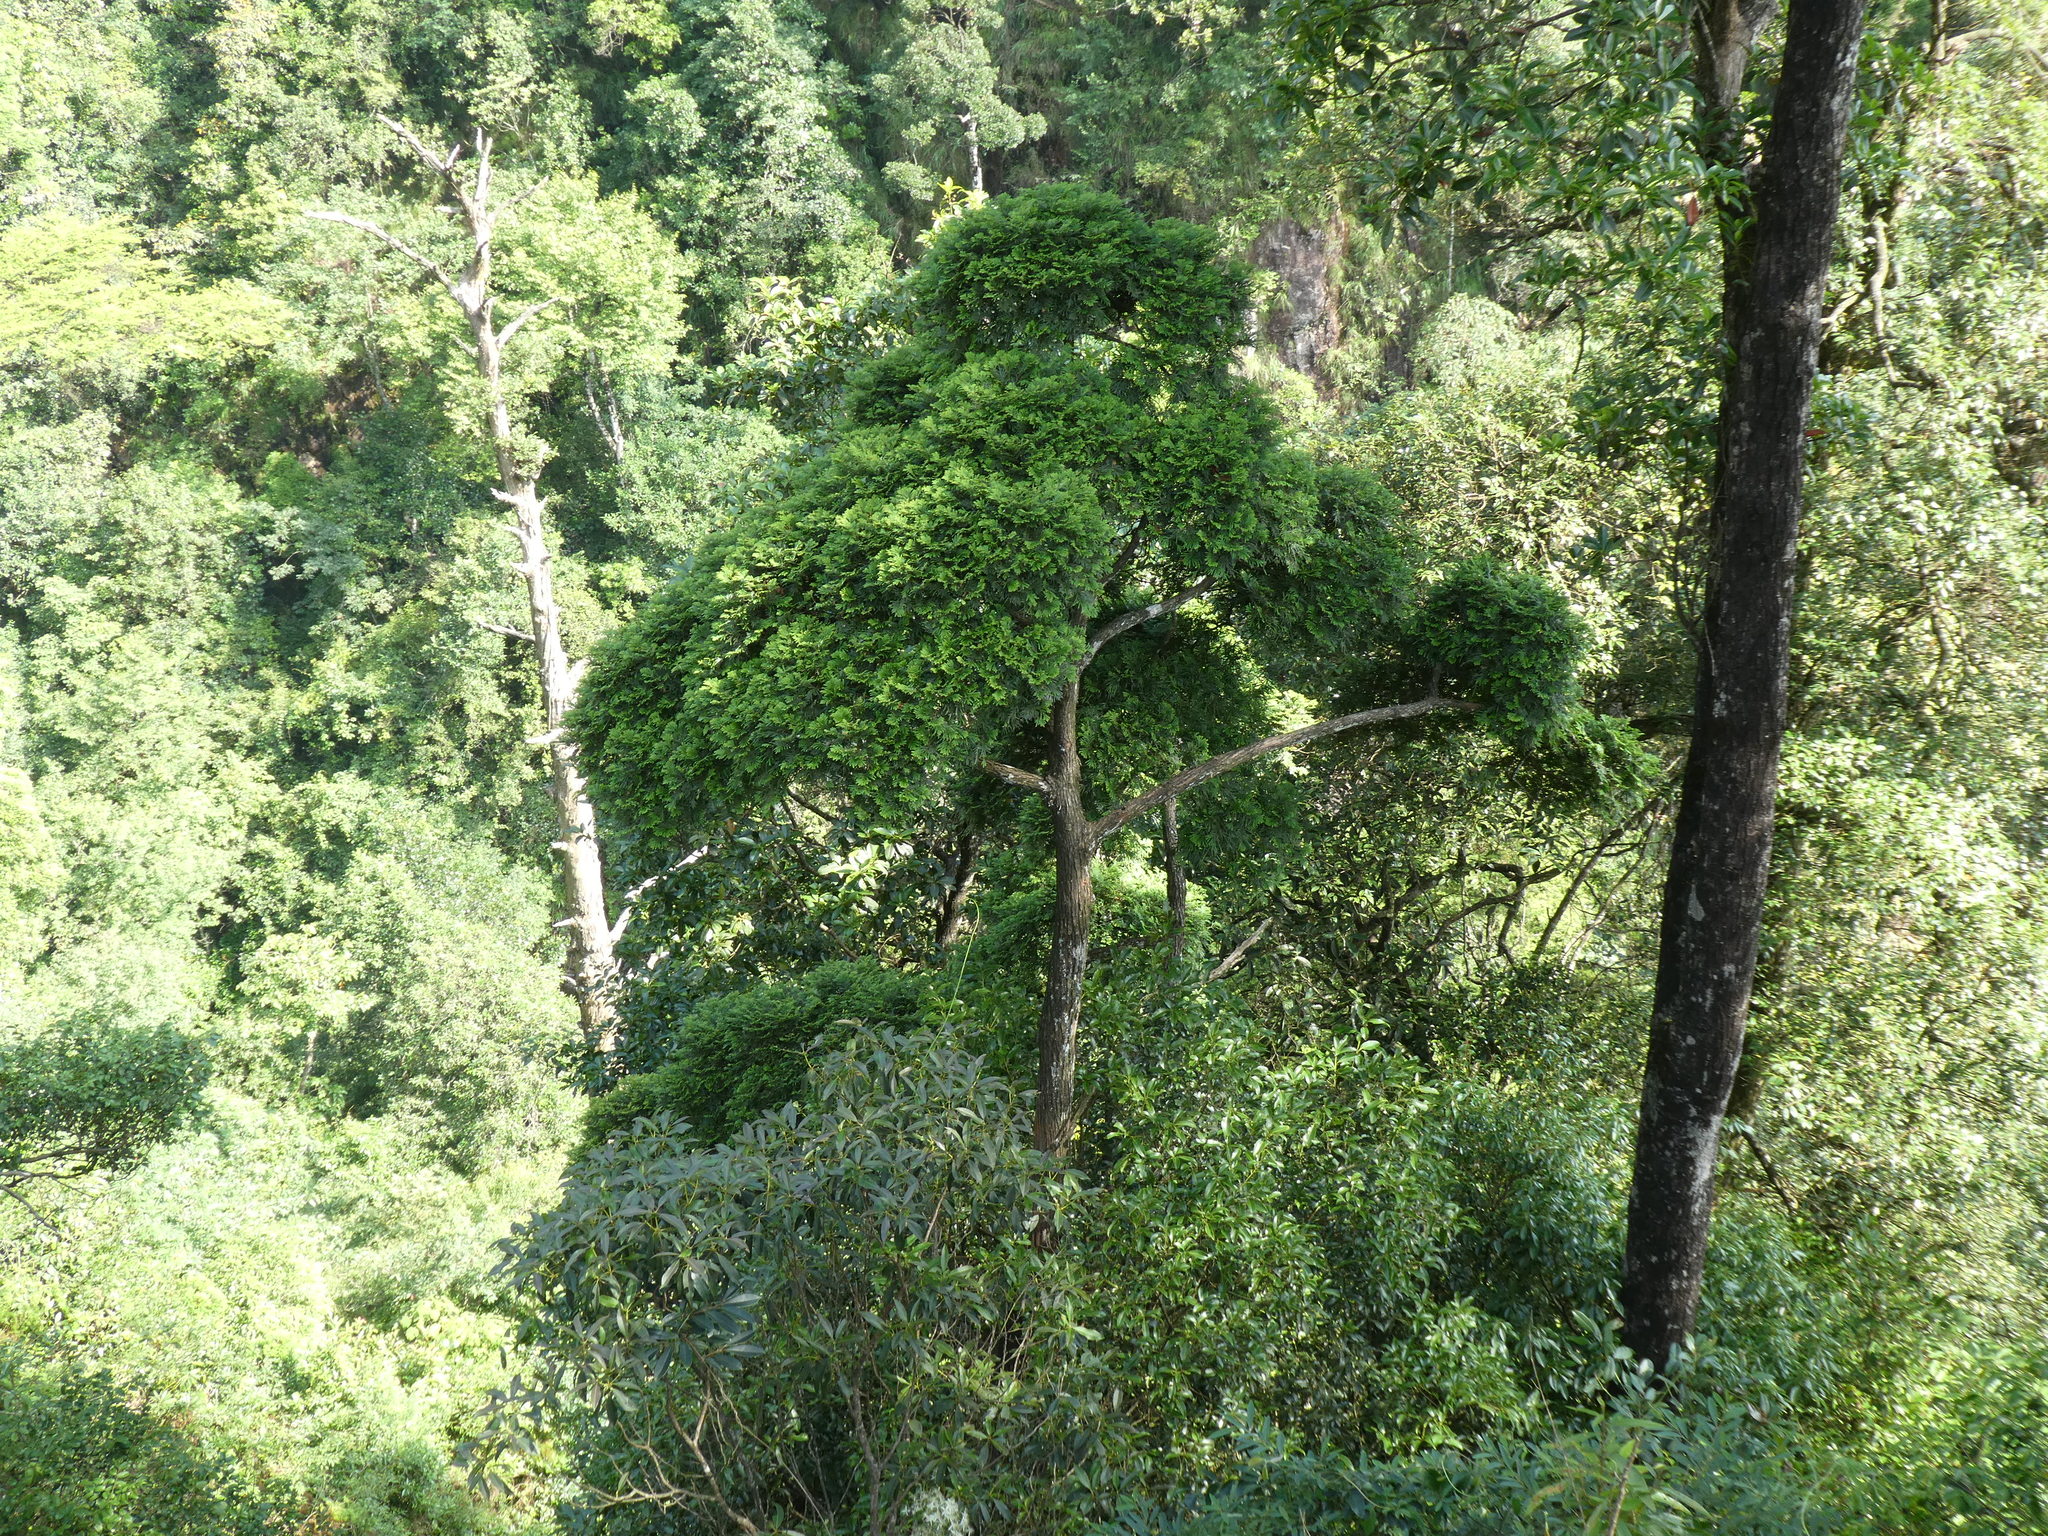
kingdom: Plantae
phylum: Tracheophyta
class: Pinopsida
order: Pinales
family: Cupressaceae
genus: Fokienia
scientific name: Fokienia hodginsii
